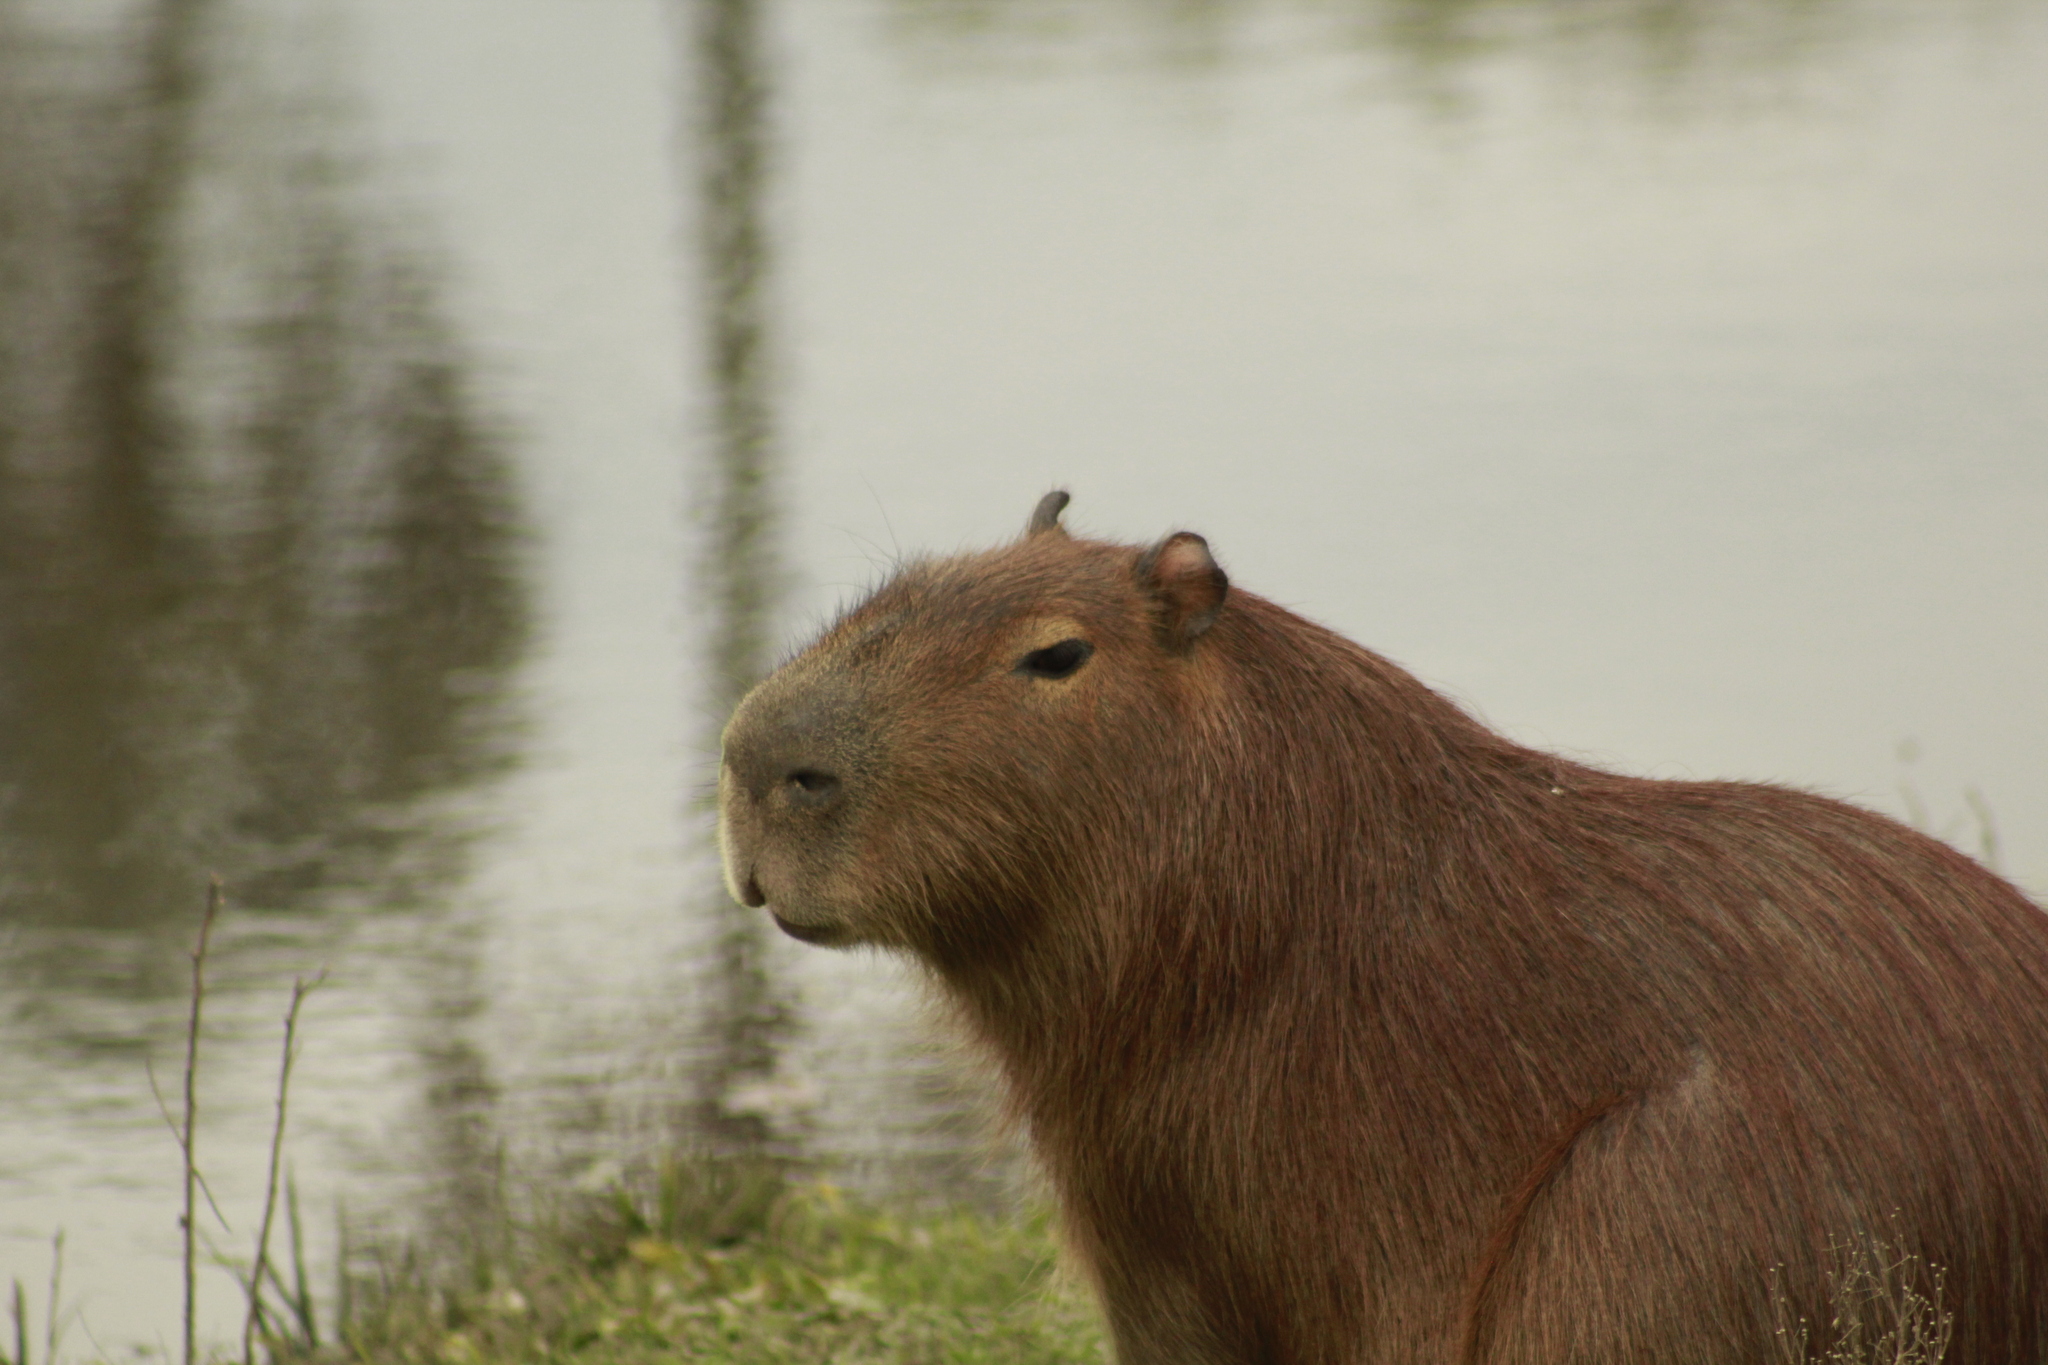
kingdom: Animalia
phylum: Chordata
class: Mammalia
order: Rodentia
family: Caviidae
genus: Hydrochoerus
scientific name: Hydrochoerus hydrochaeris
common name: Capybara
